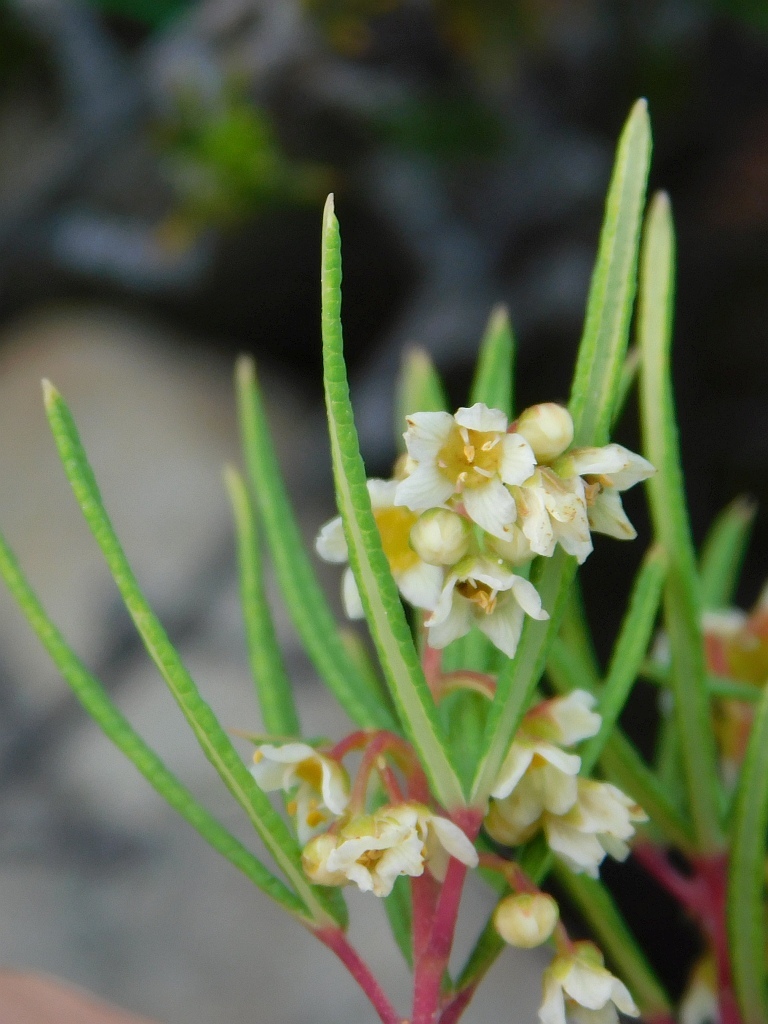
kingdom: Plantae
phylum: Tracheophyta
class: Magnoliopsida
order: Sapindales
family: Anacardiaceae
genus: Searsia
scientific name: Searsia rosmarinifolia
